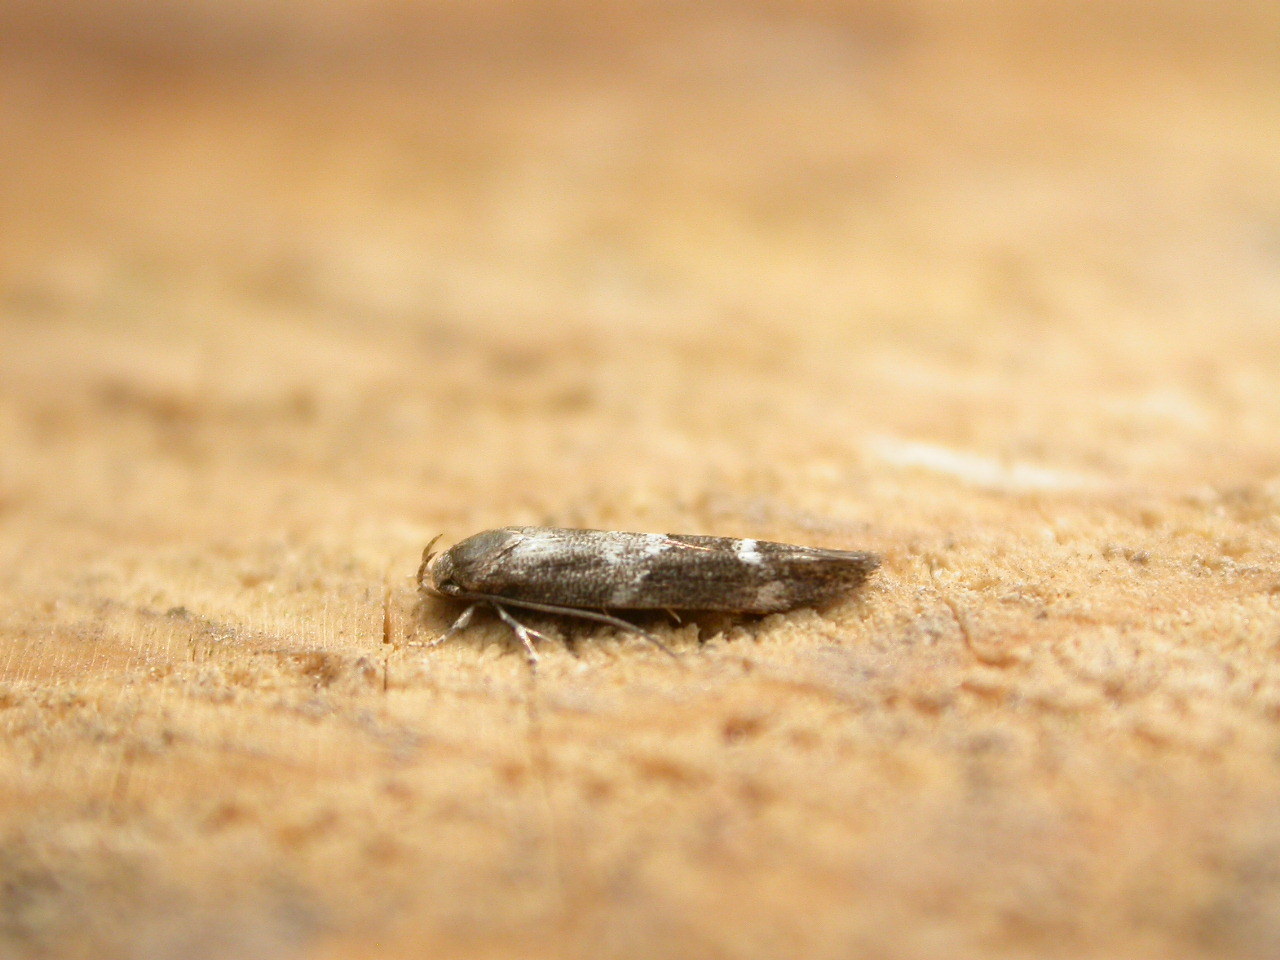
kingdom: Animalia
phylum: Arthropoda
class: Insecta
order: Lepidoptera
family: Momphidae
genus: Mompha
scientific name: Mompha subbistrigella
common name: Garden cosmet
